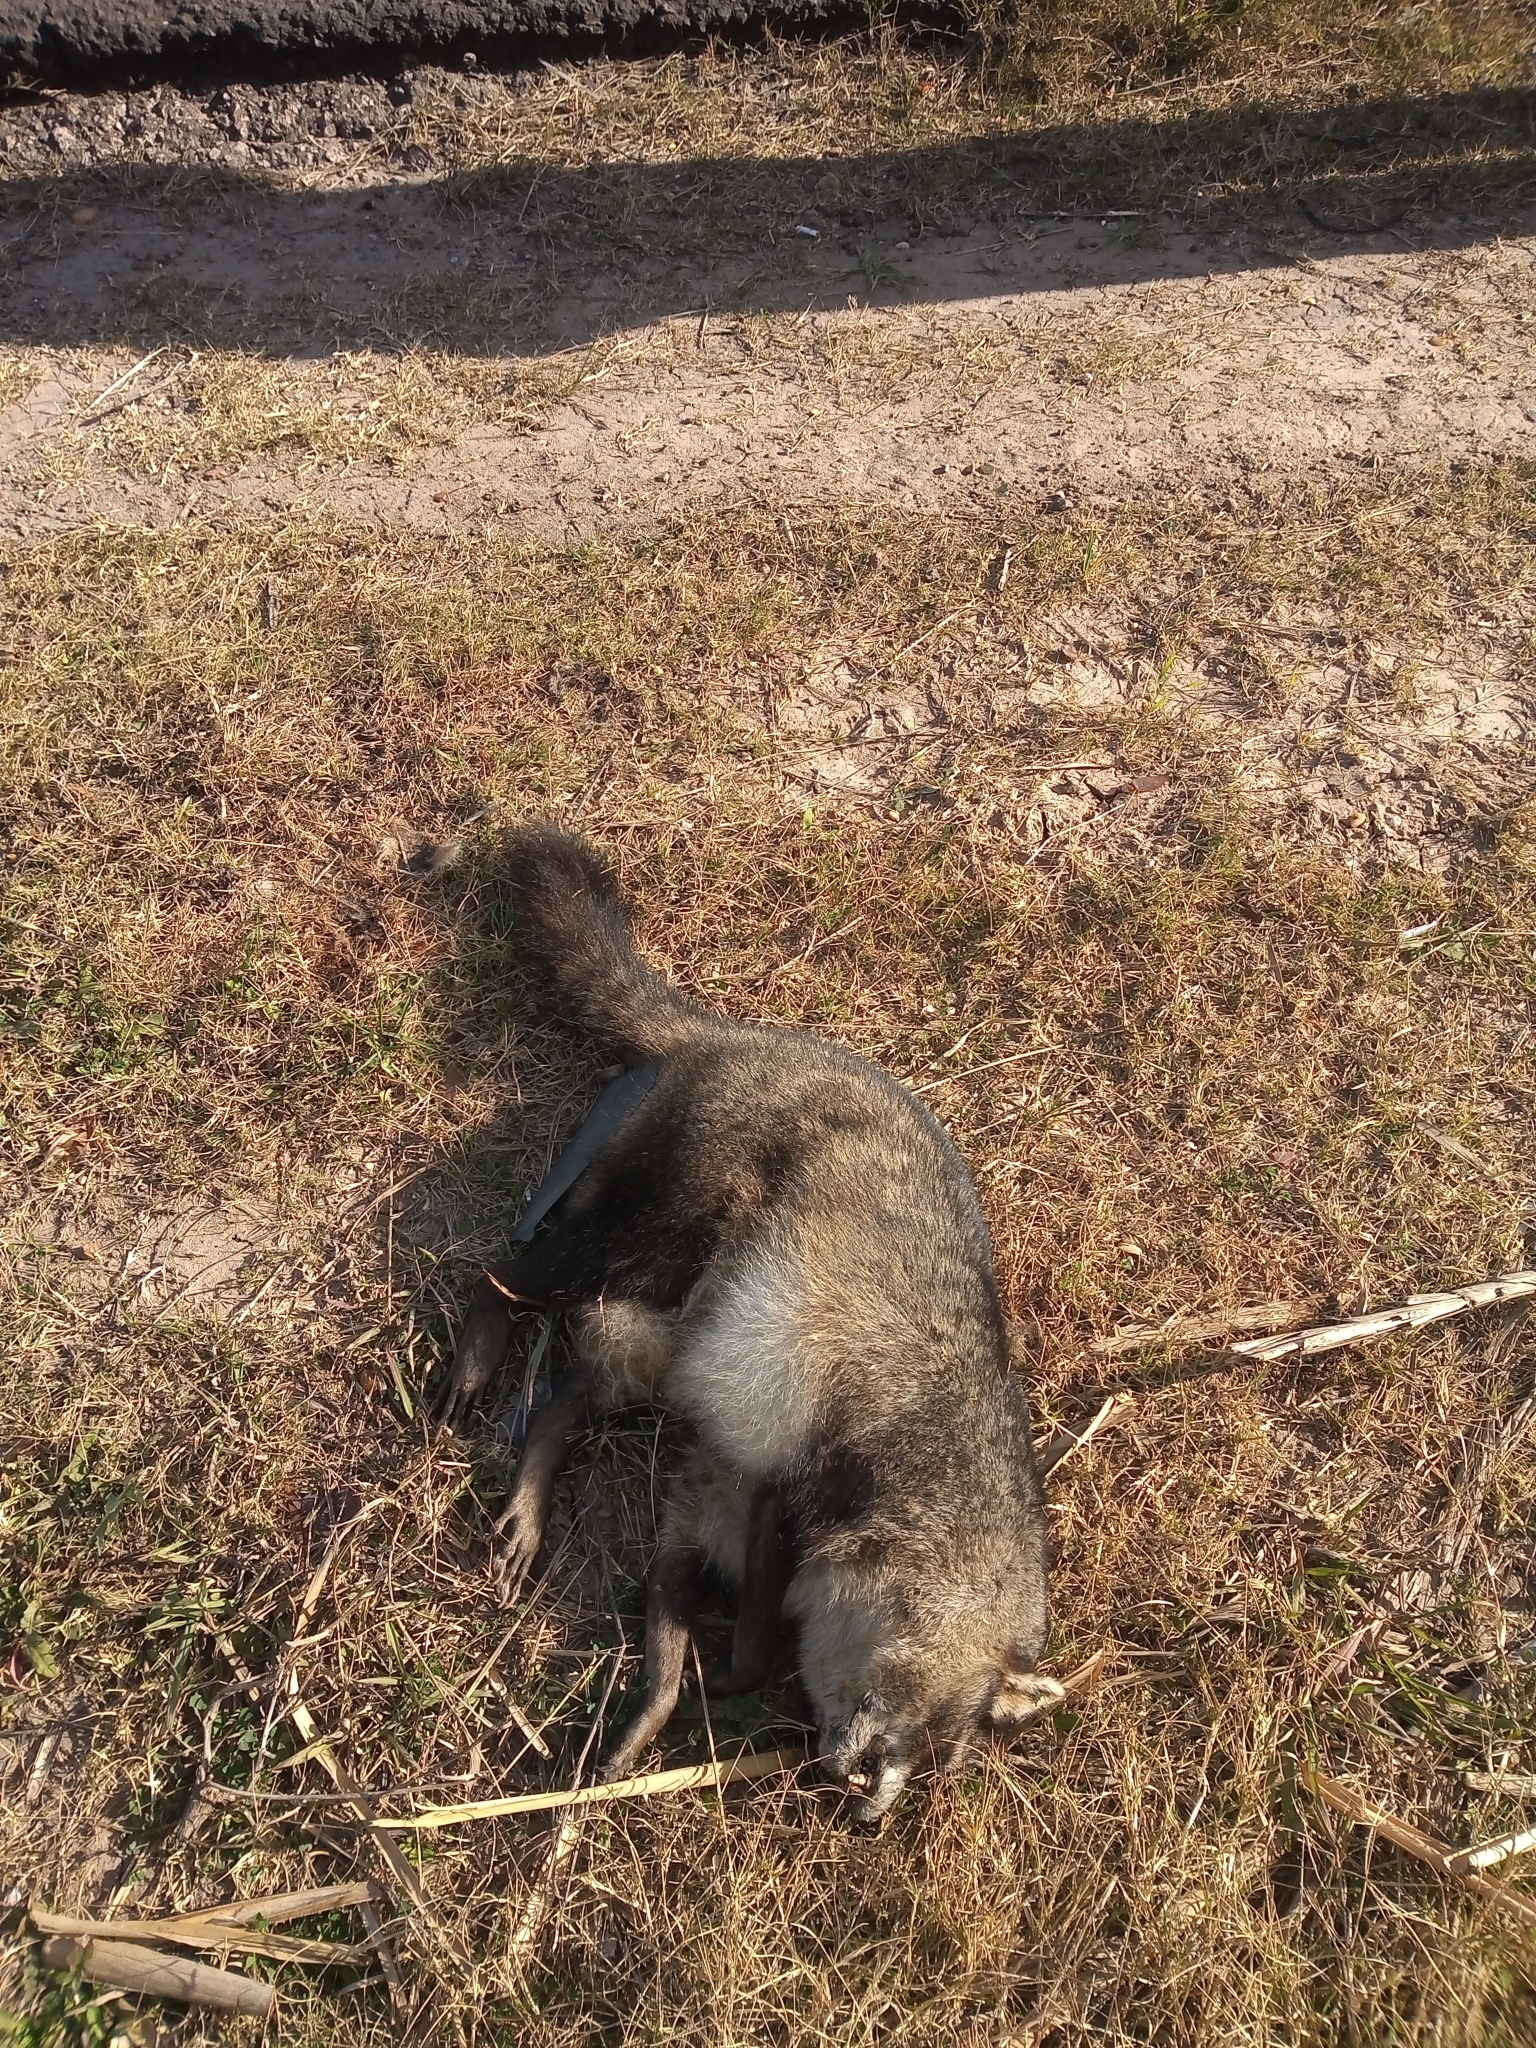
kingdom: Animalia
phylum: Chordata
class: Mammalia
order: Carnivora
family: Procyonidae
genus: Procyon
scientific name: Procyon cancrivorus
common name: Crab-eating raccoon
